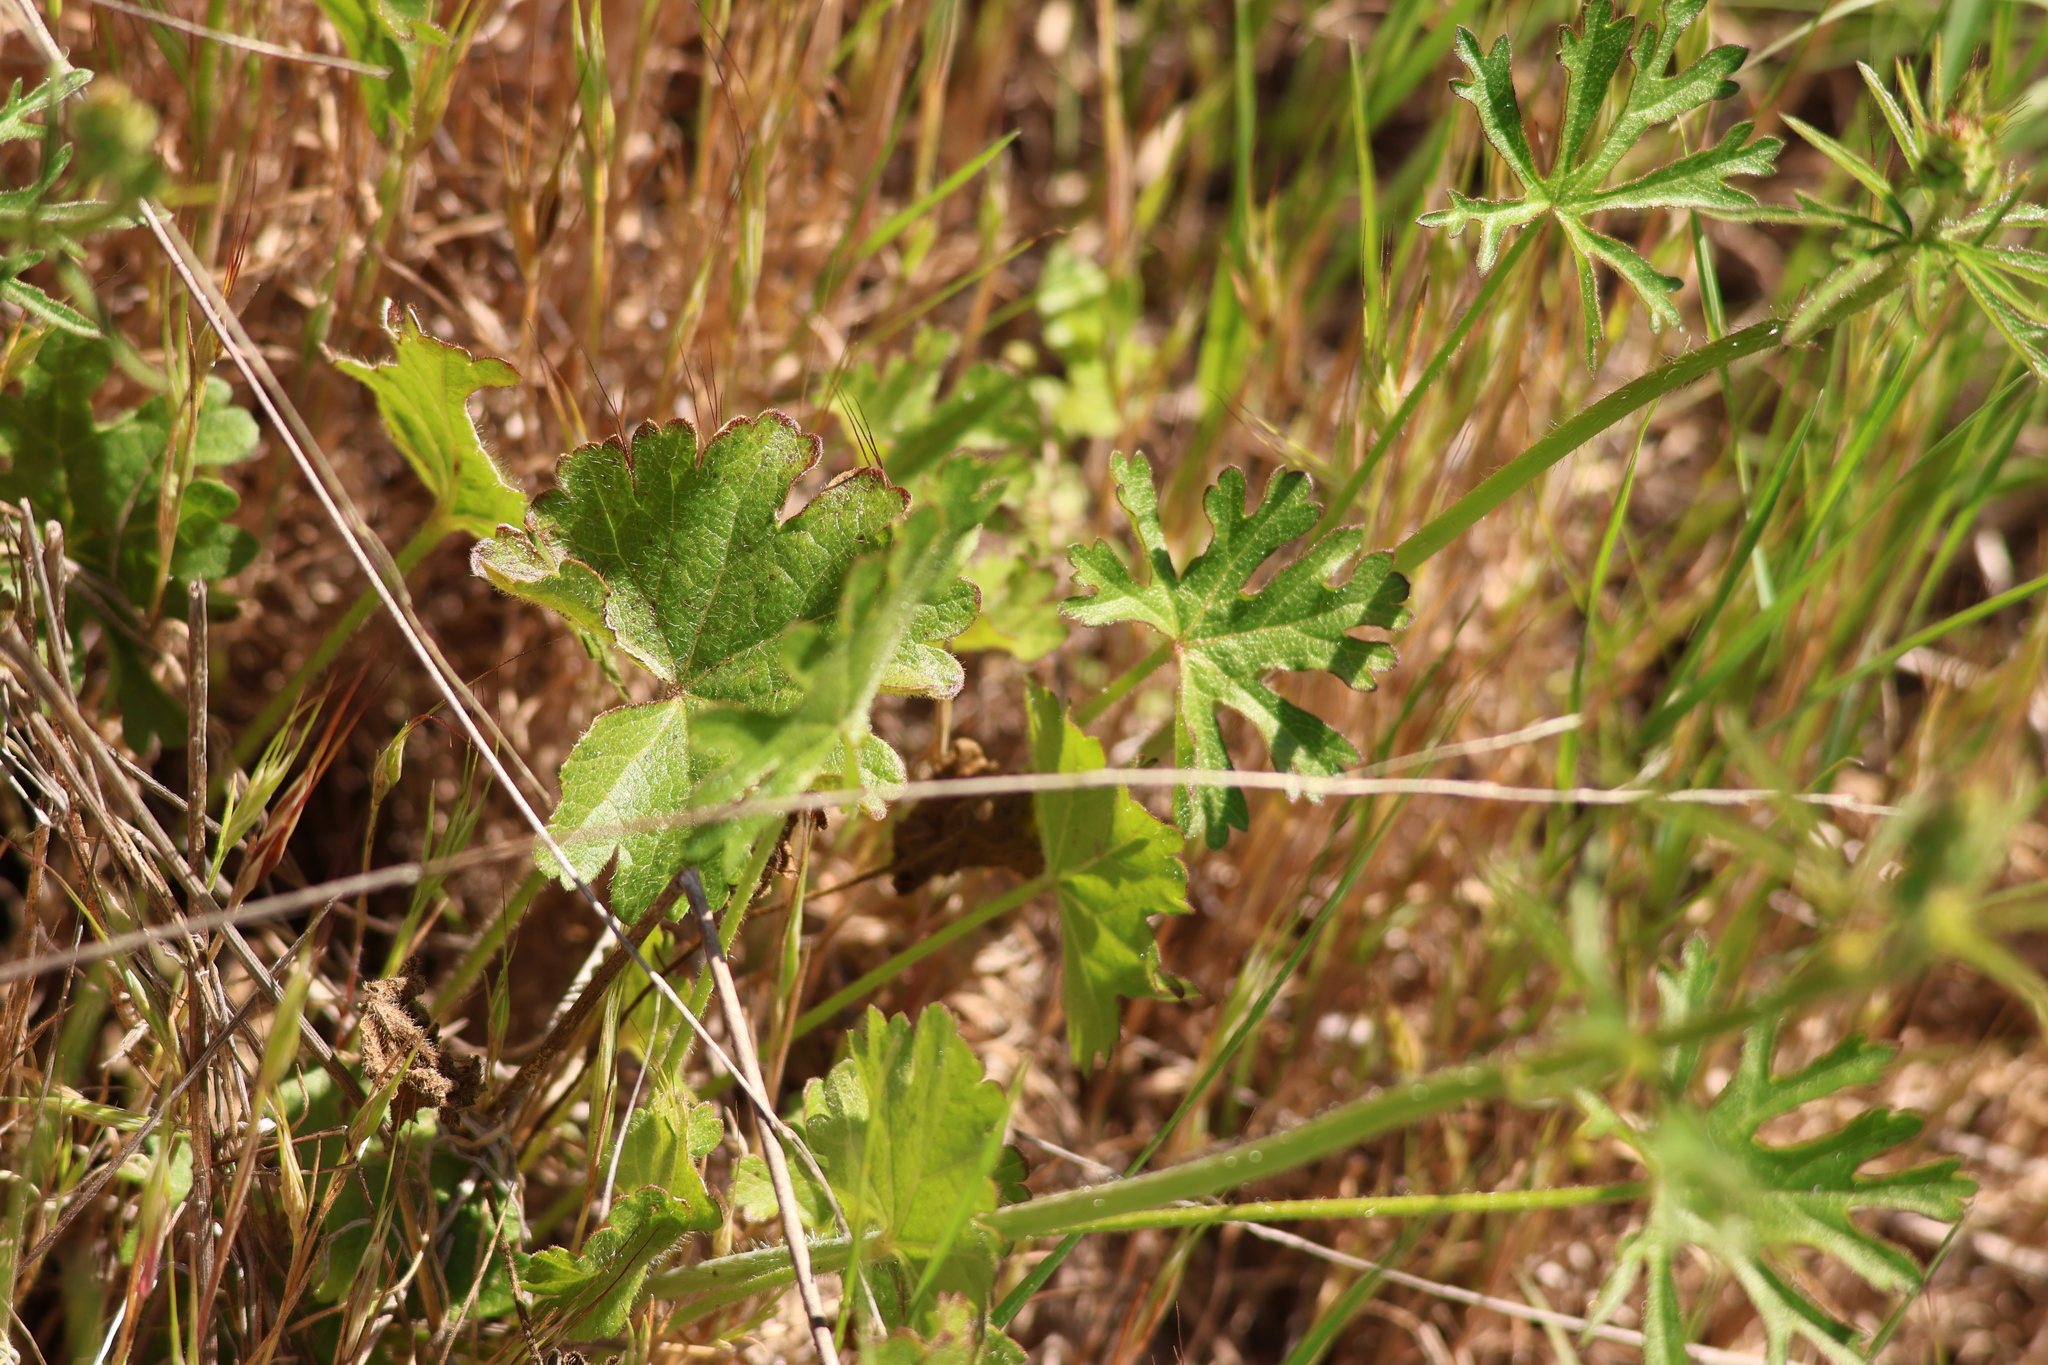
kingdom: Plantae
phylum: Tracheophyta
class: Magnoliopsida
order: Malvales
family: Malvaceae
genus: Sidalcea
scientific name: Sidalcea sparsifolia
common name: Southern checkerbloom
